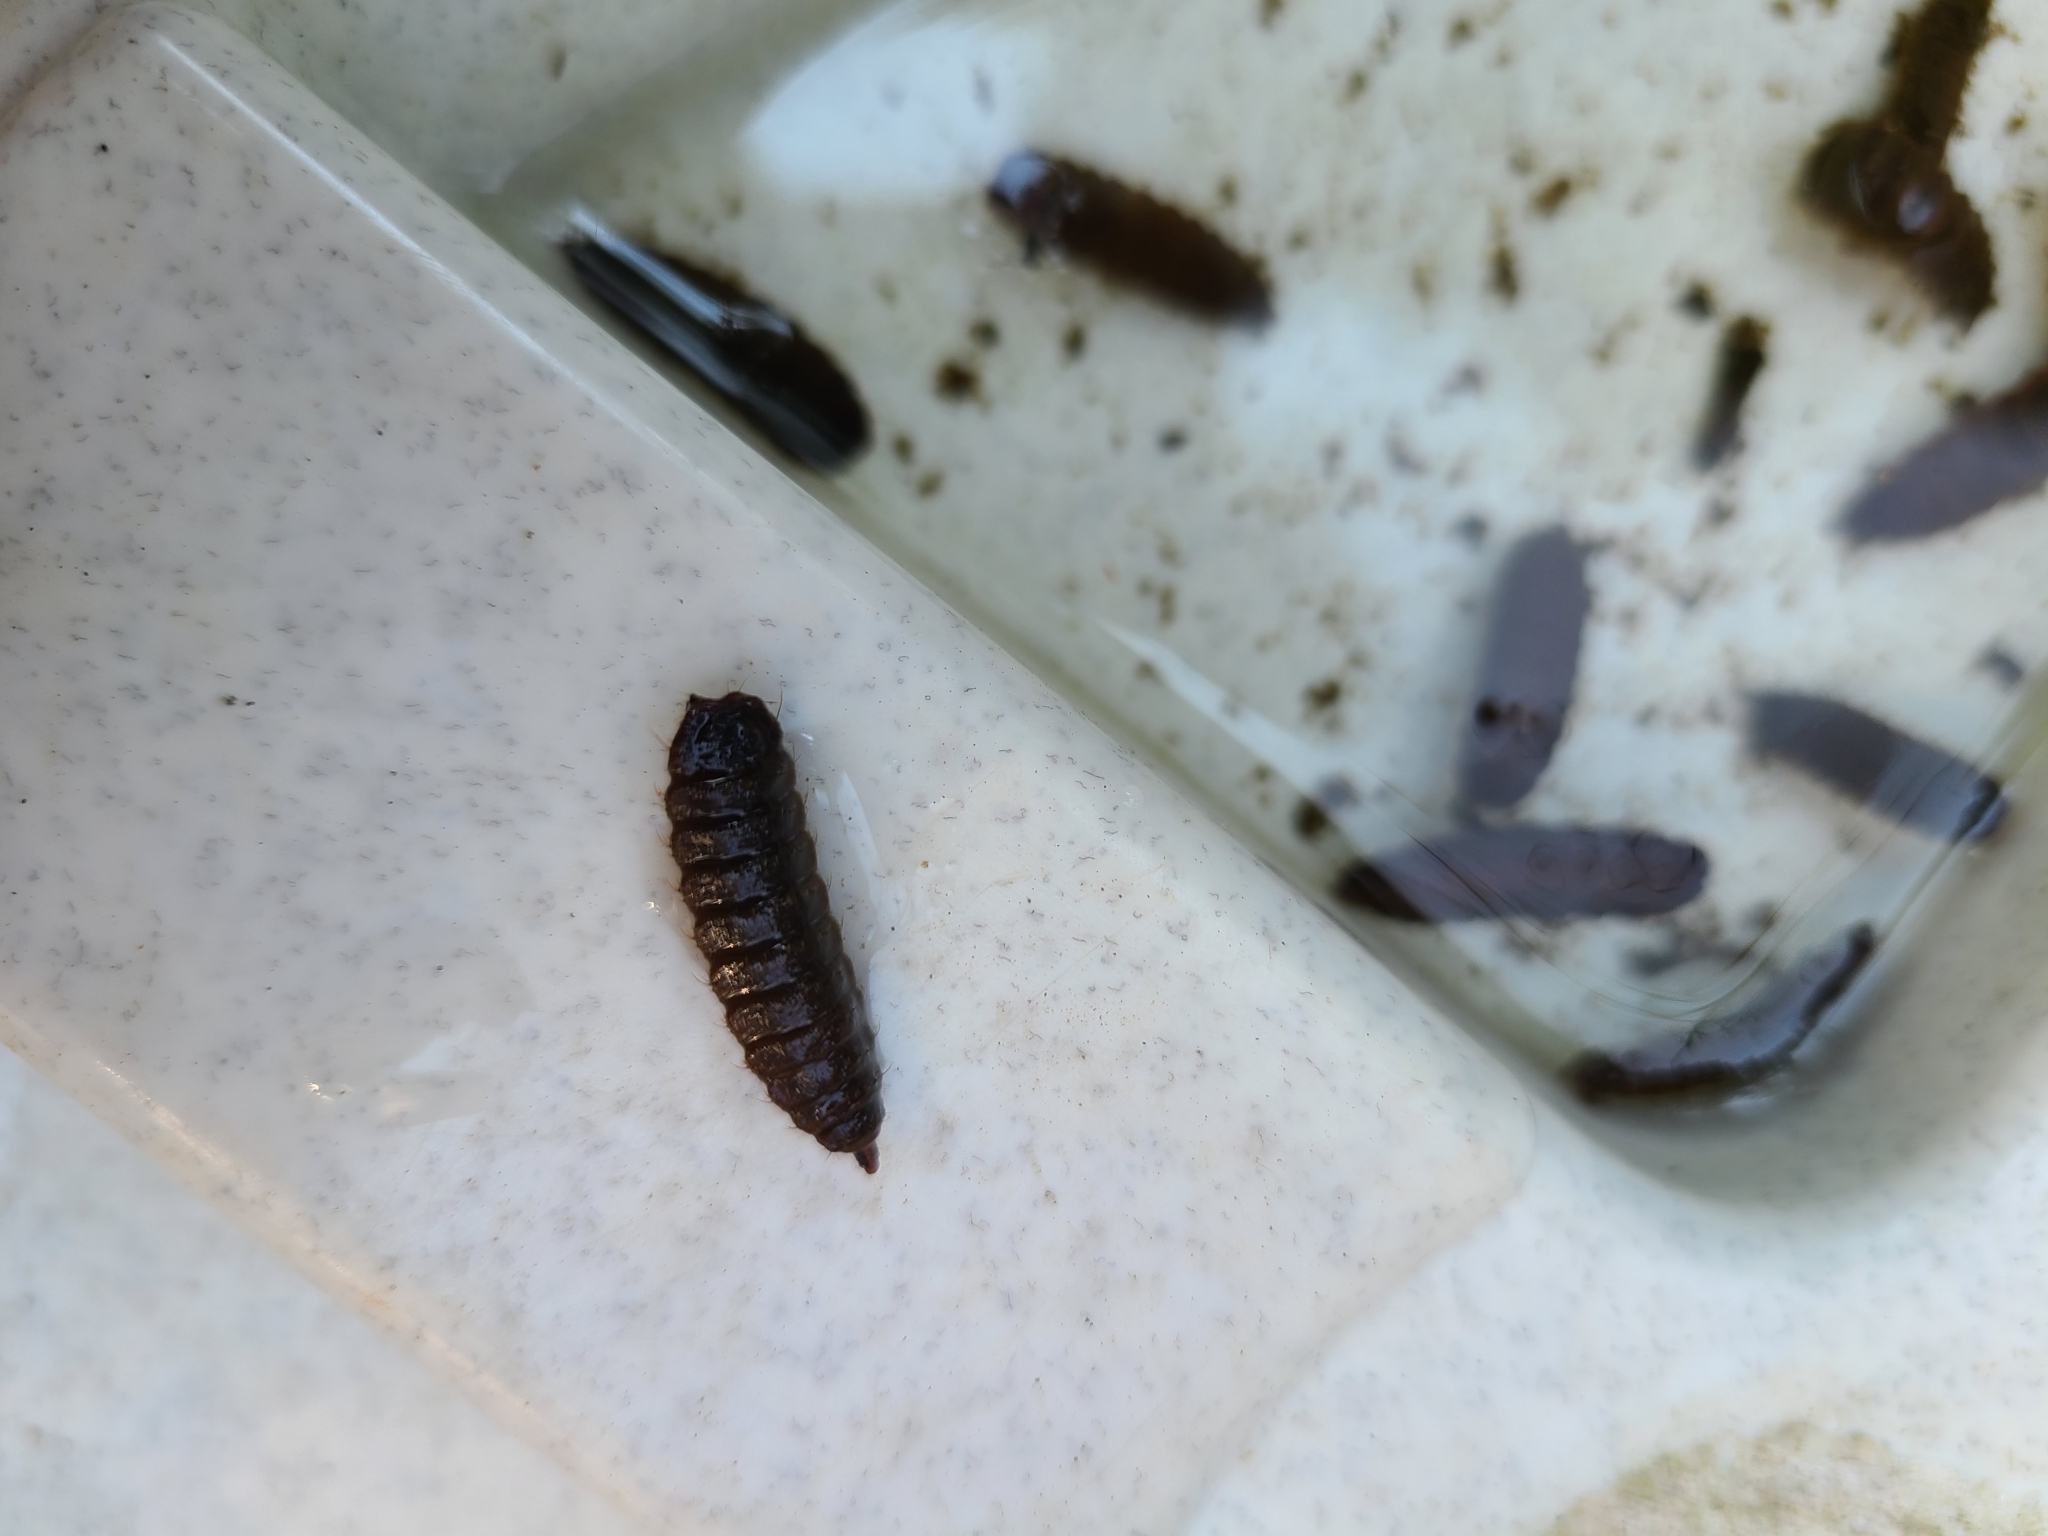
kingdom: Animalia
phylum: Arthropoda
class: Insecta
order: Diptera
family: Stratiomyidae
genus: Hermetia
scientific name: Hermetia illucens
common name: Black soldier fly
